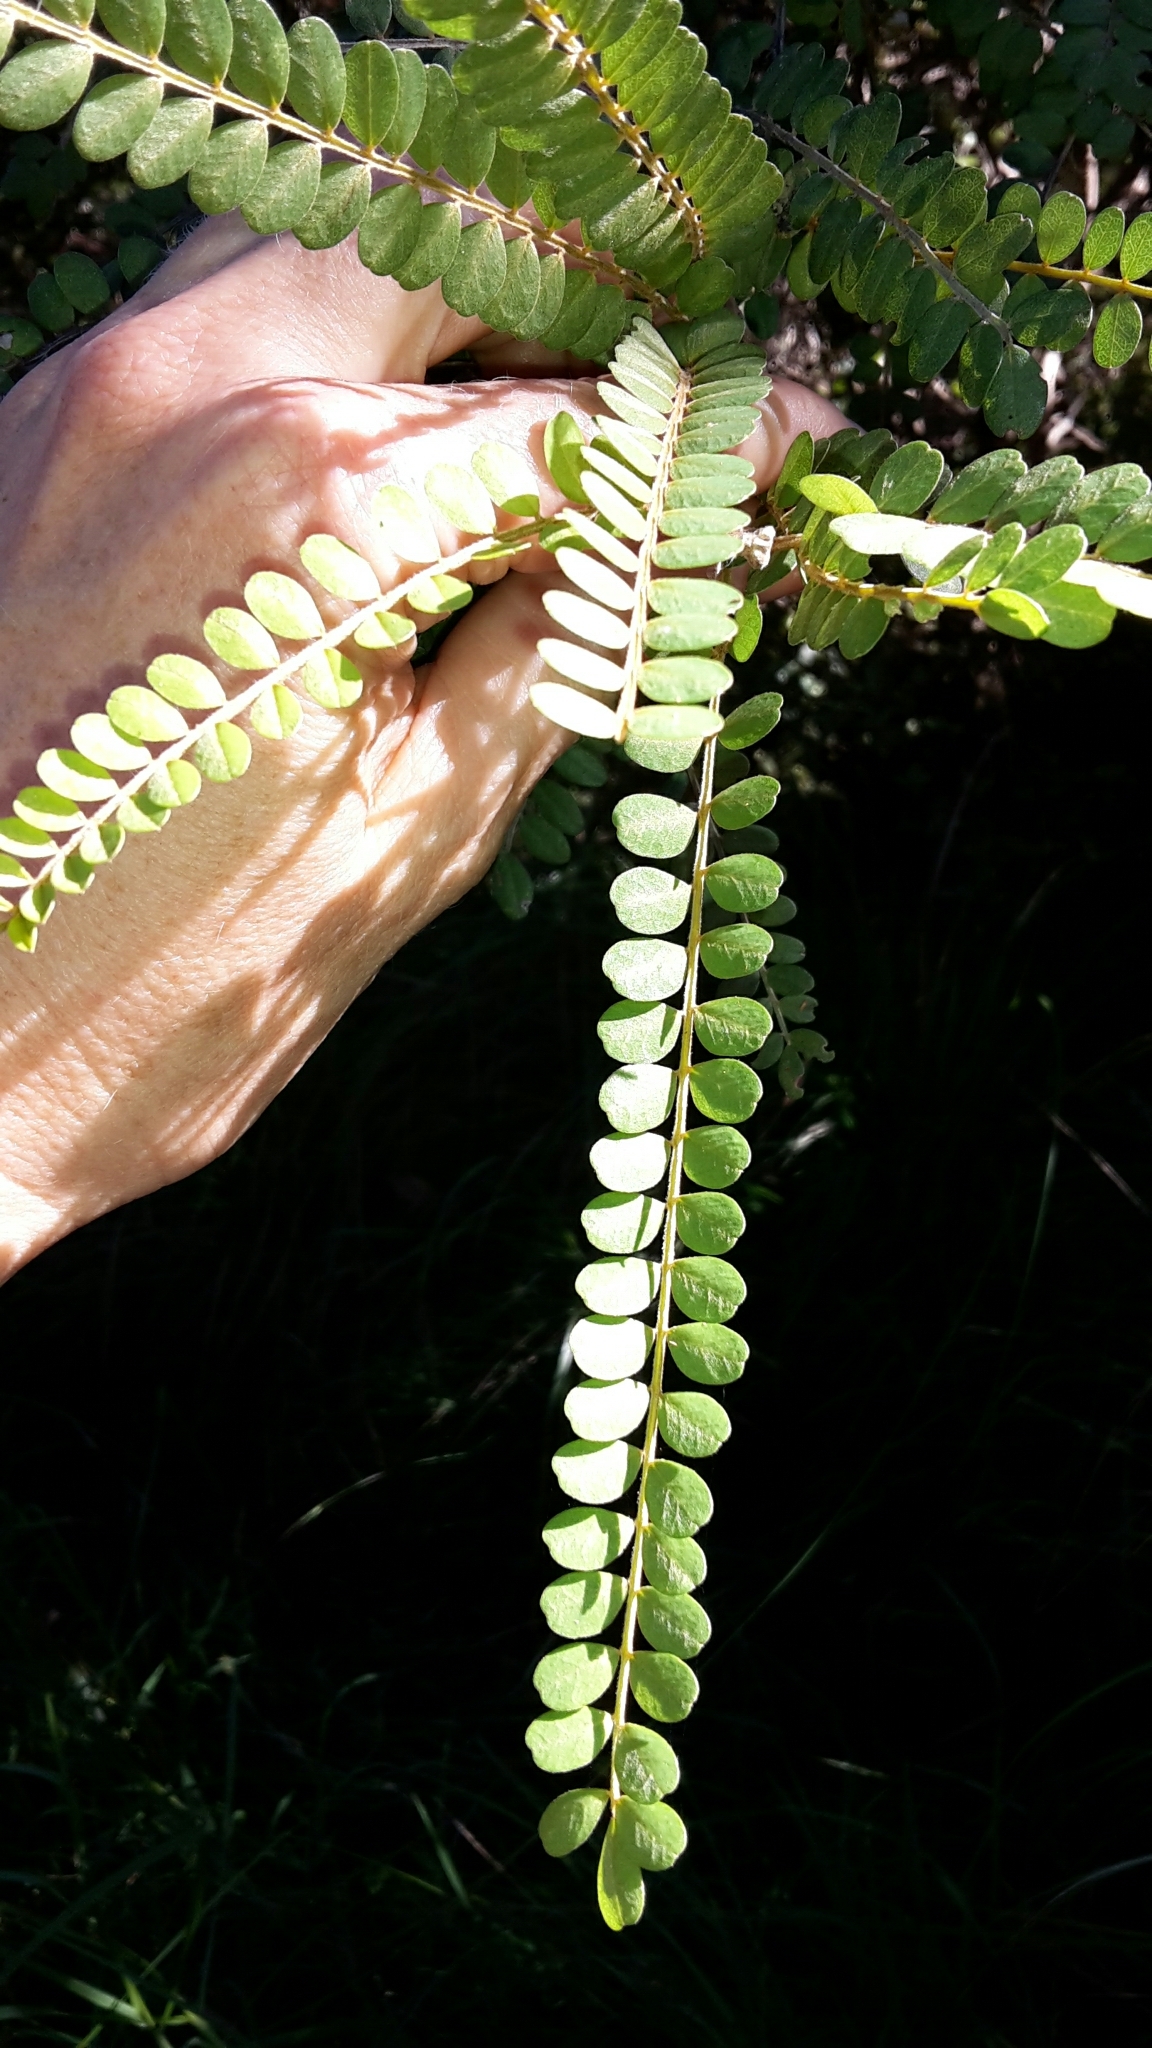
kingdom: Plantae
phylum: Tracheophyta
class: Magnoliopsida
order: Fabales
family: Fabaceae
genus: Sophora
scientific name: Sophora chathamica
